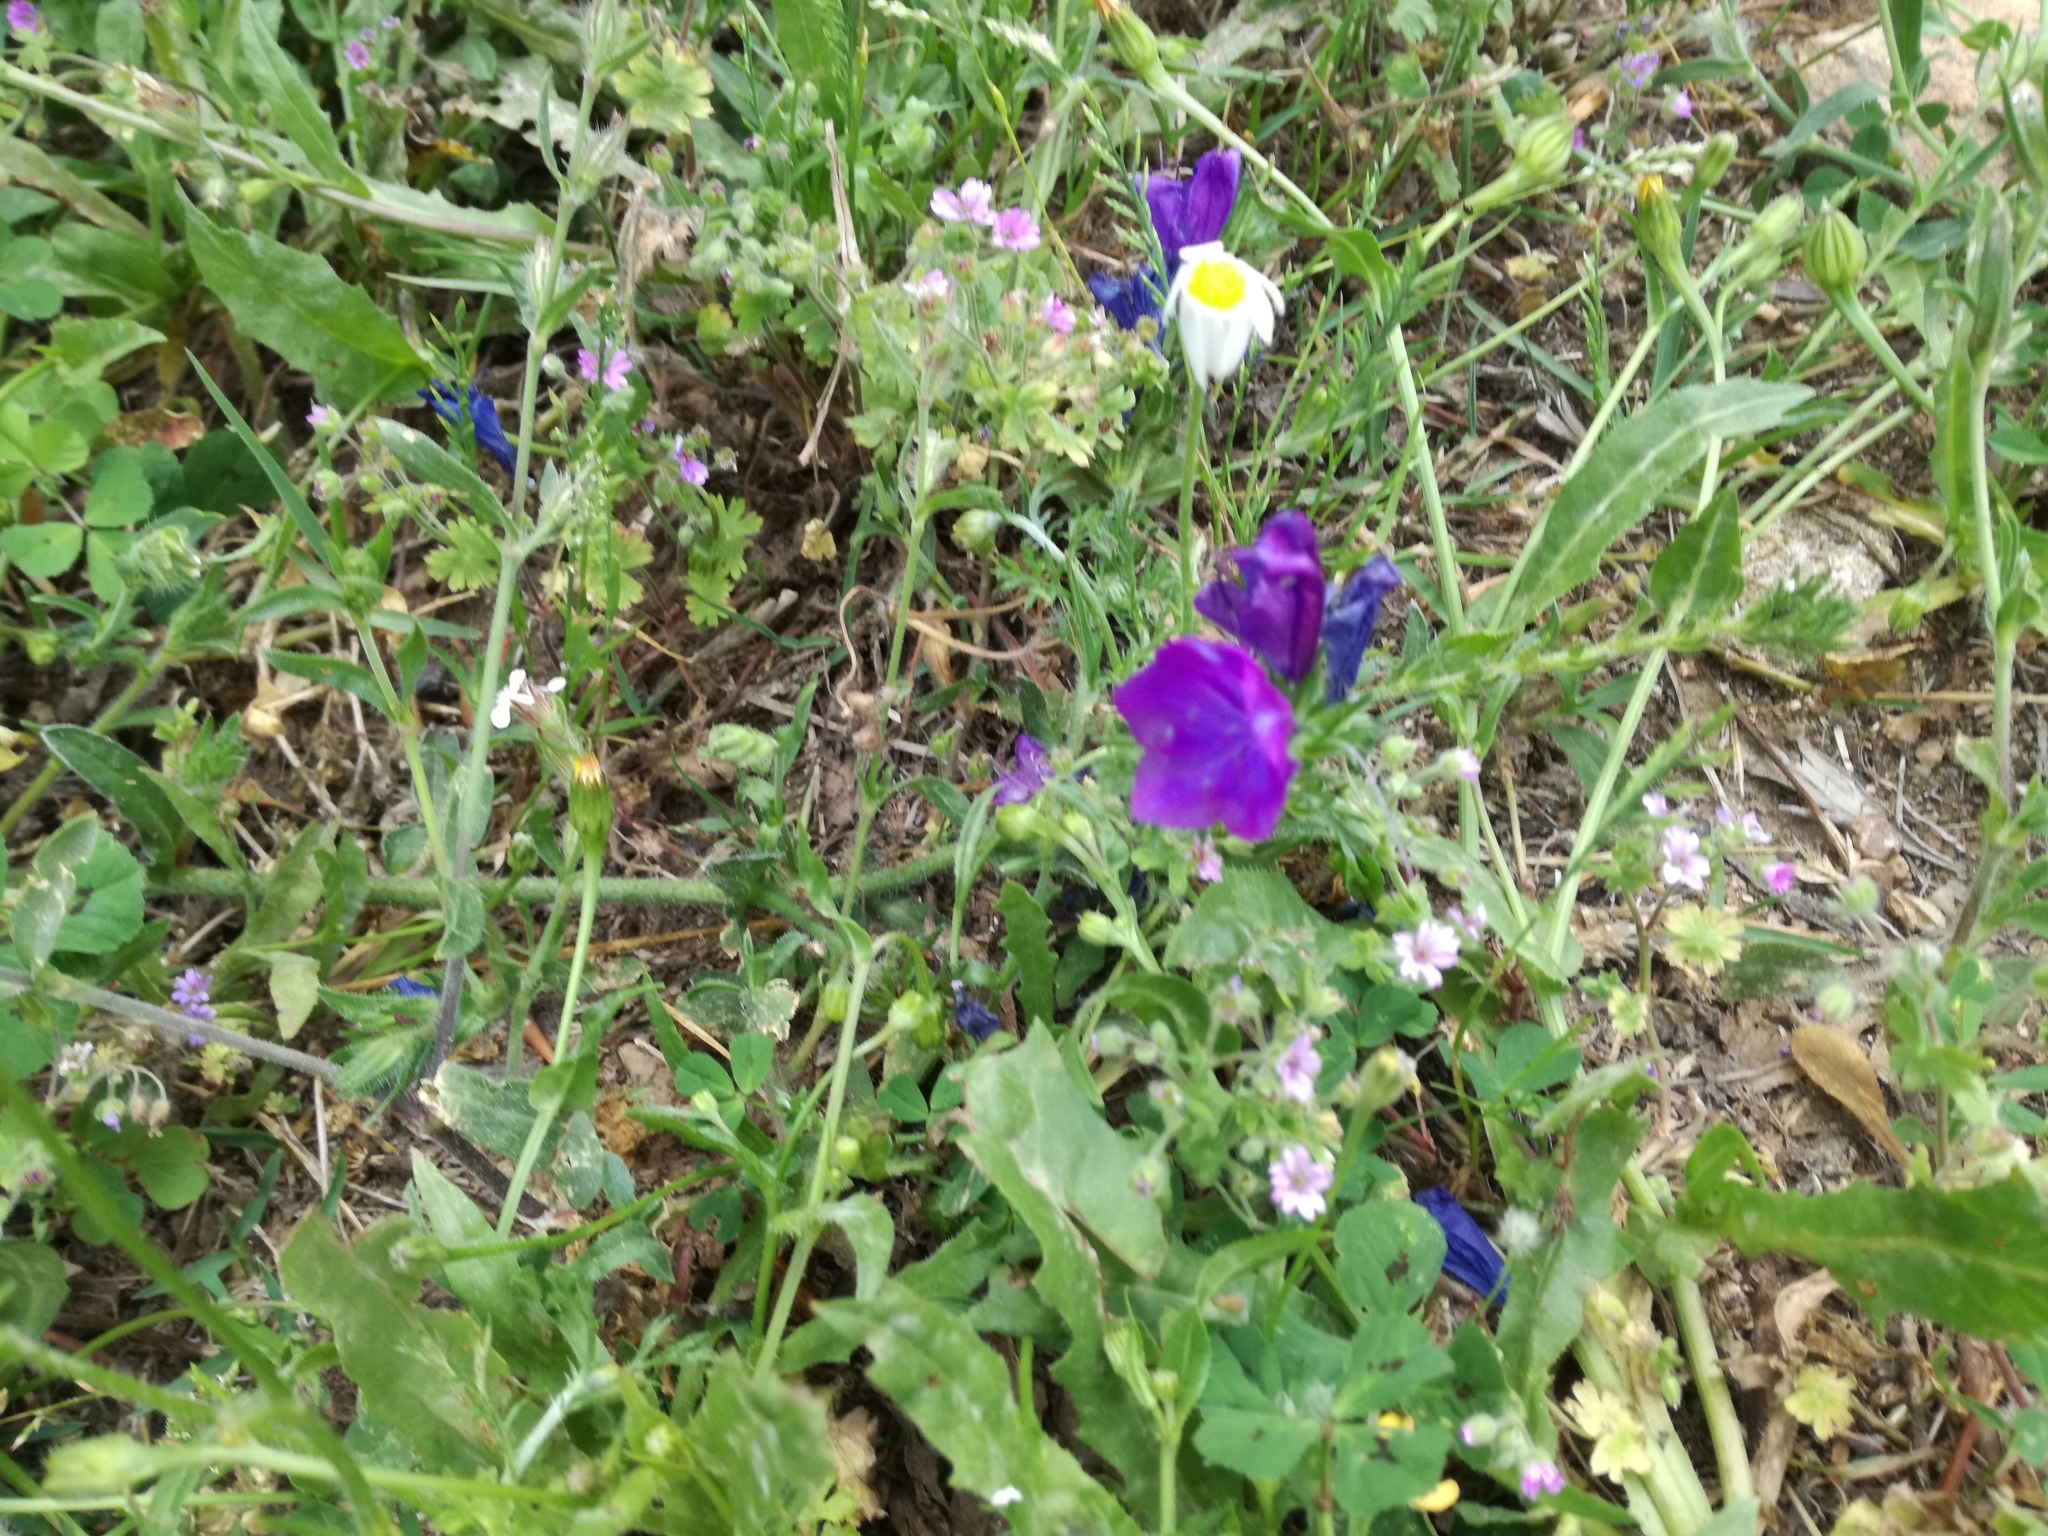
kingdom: Plantae
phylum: Tracheophyta
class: Magnoliopsida
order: Boraginales
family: Boraginaceae
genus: Echium
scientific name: Echium plantagineum
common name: Purple viper's-bugloss
